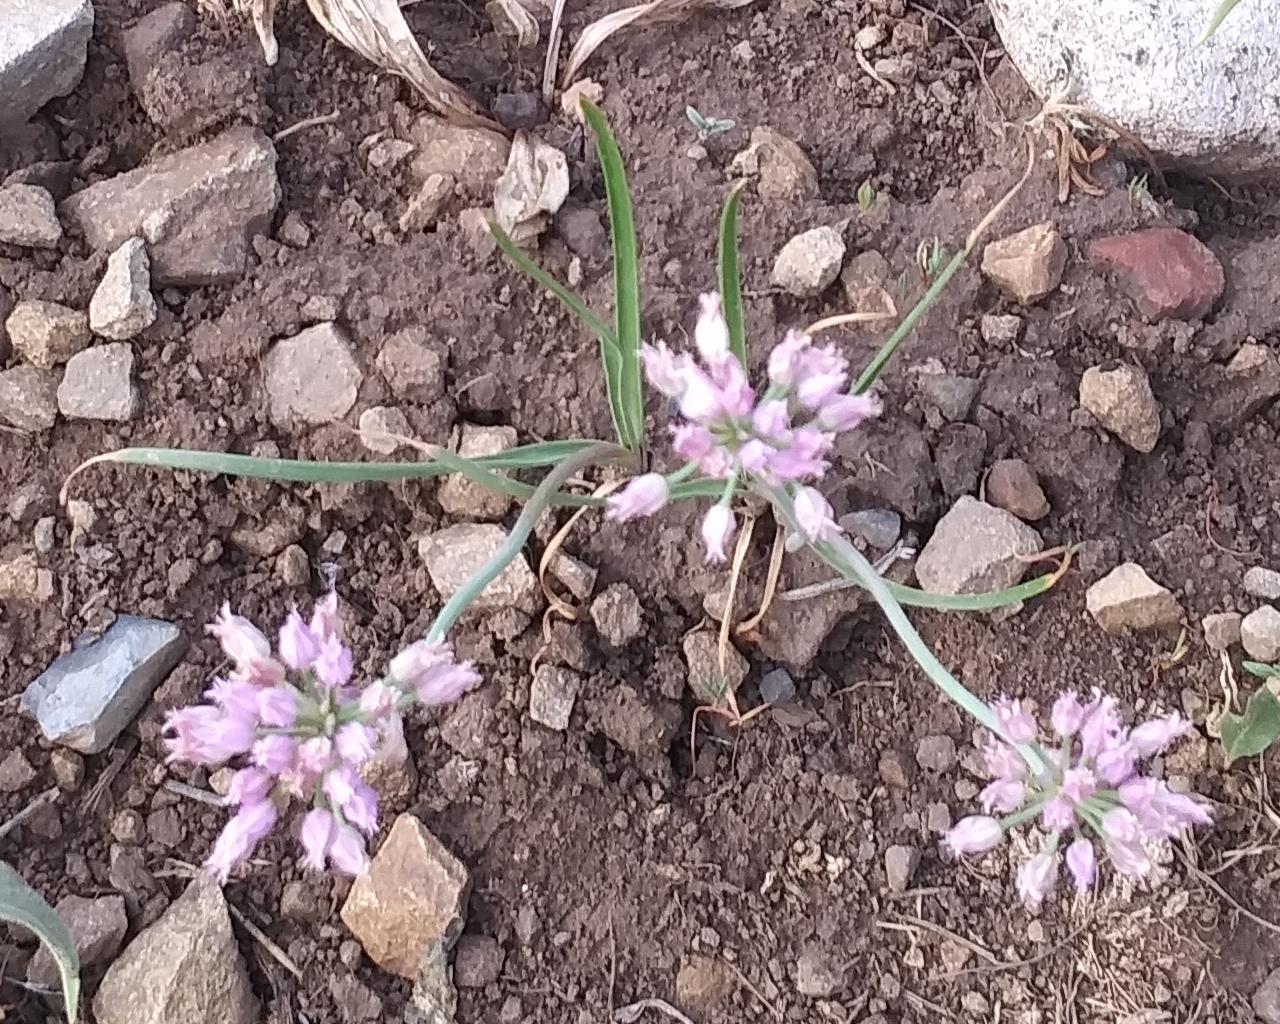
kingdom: Plantae
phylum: Tracheophyta
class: Liliopsida
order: Asparagales
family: Amaryllidaceae
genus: Allium
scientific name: Allium geyeri
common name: Geyer's onion
